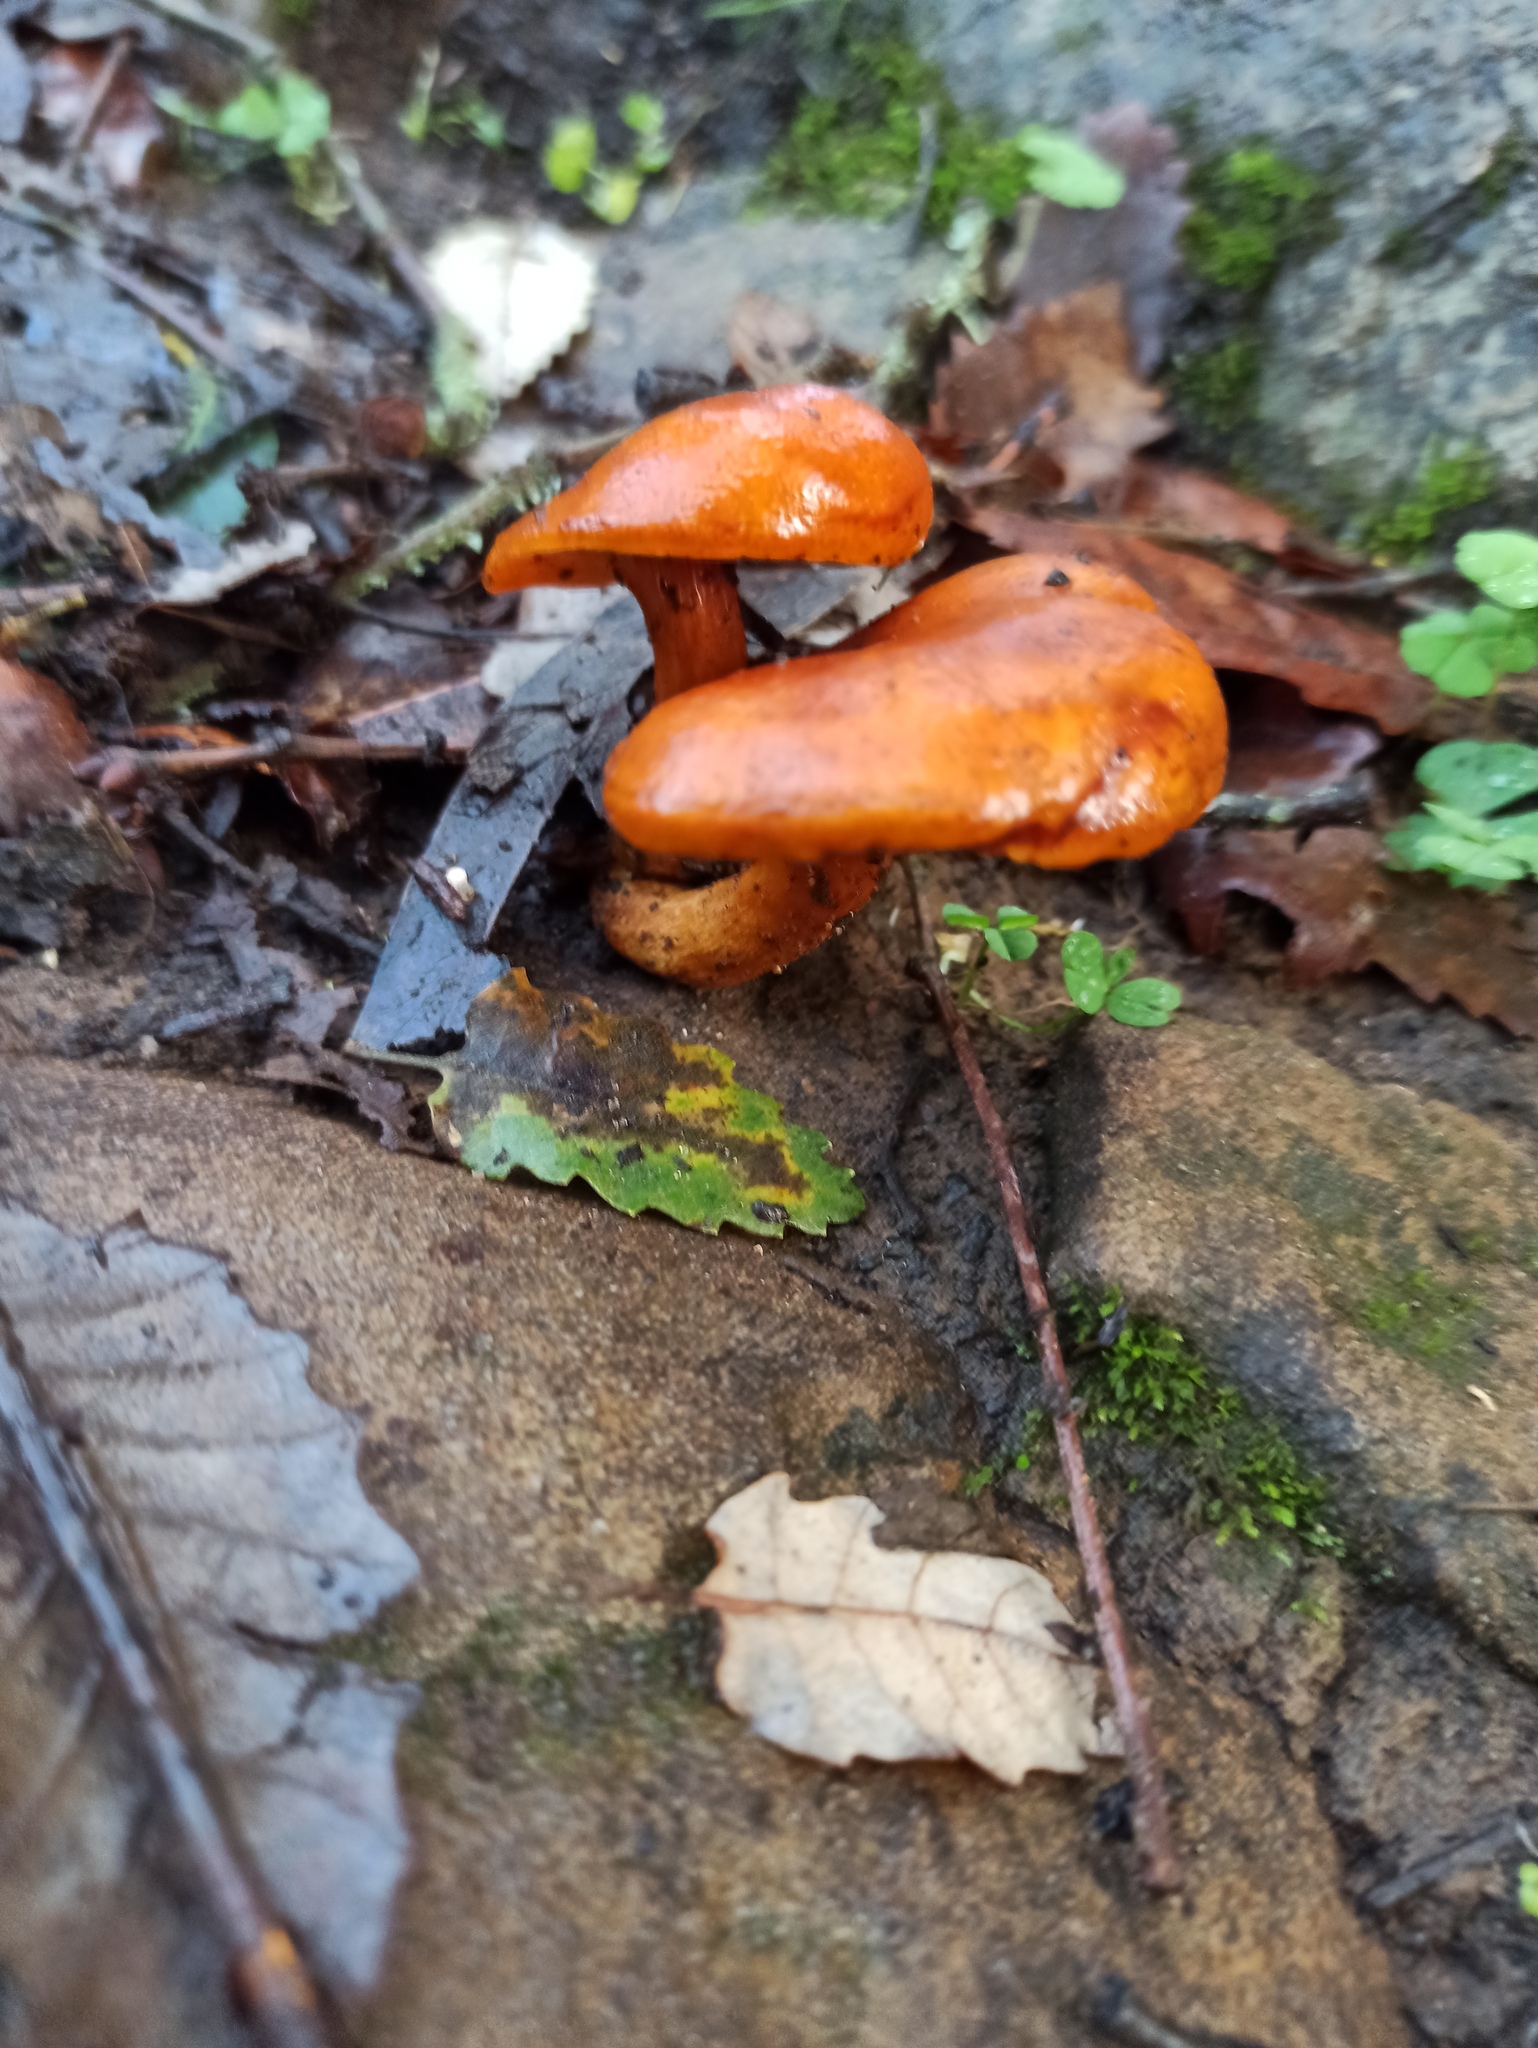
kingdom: Fungi
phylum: Basidiomycota
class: Agaricomycetes
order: Agaricales
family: Omphalotaceae
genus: Omphalotus
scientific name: Omphalotus olearius
